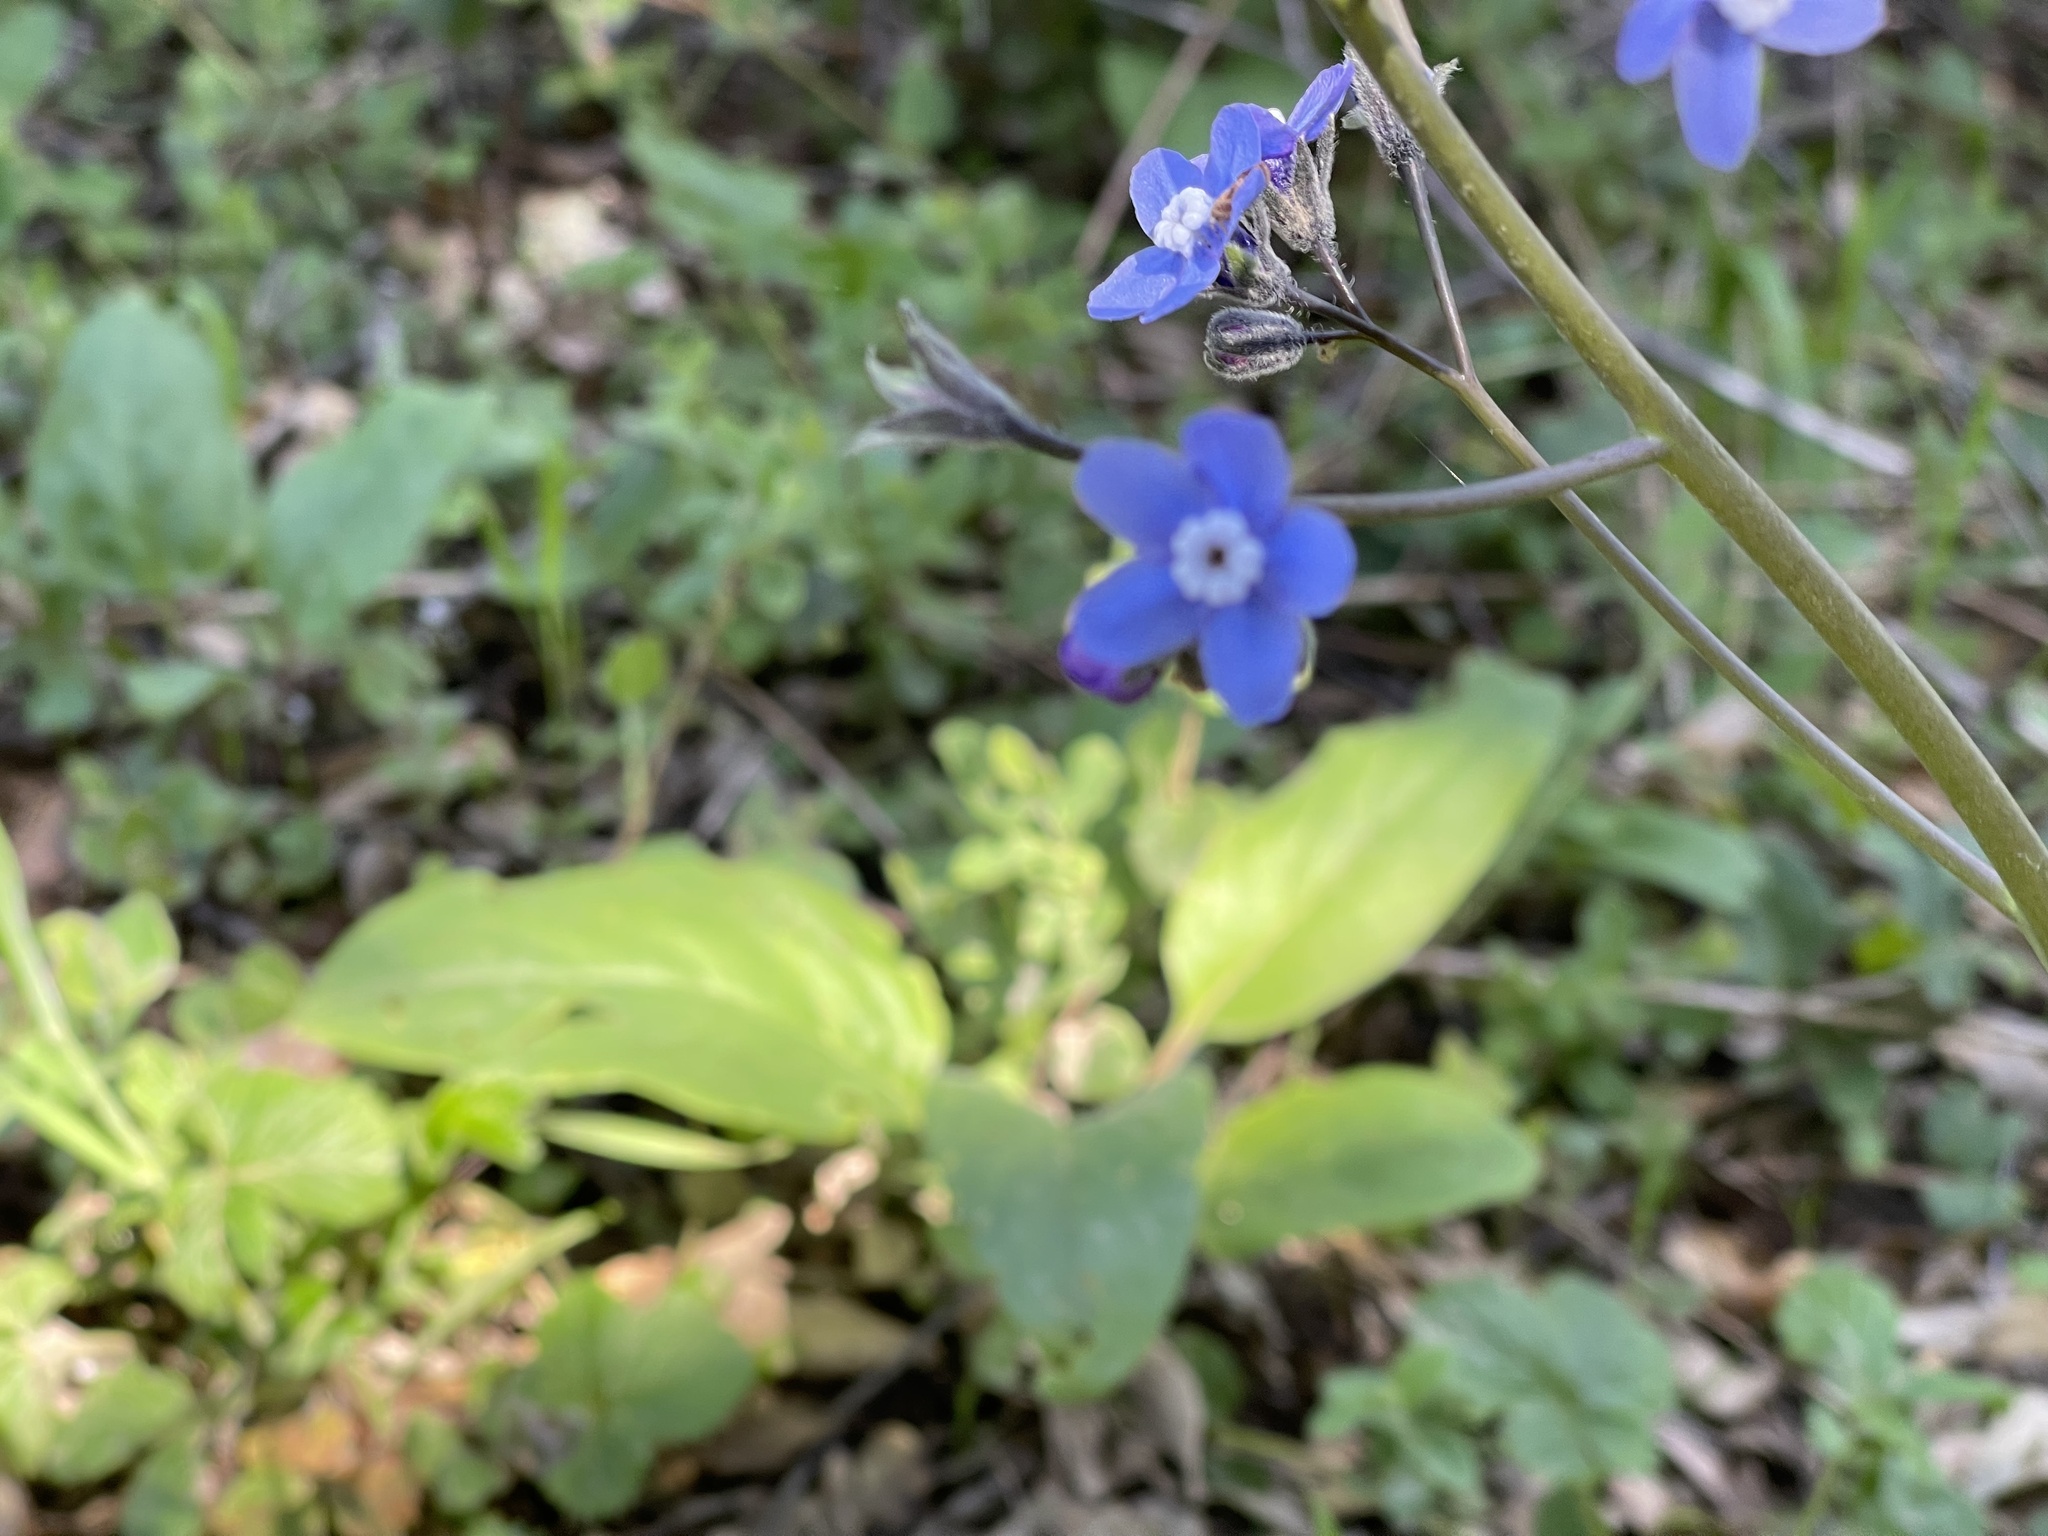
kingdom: Plantae
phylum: Tracheophyta
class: Magnoliopsida
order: Boraginales
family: Boraginaceae
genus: Adelinia
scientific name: Adelinia grande
